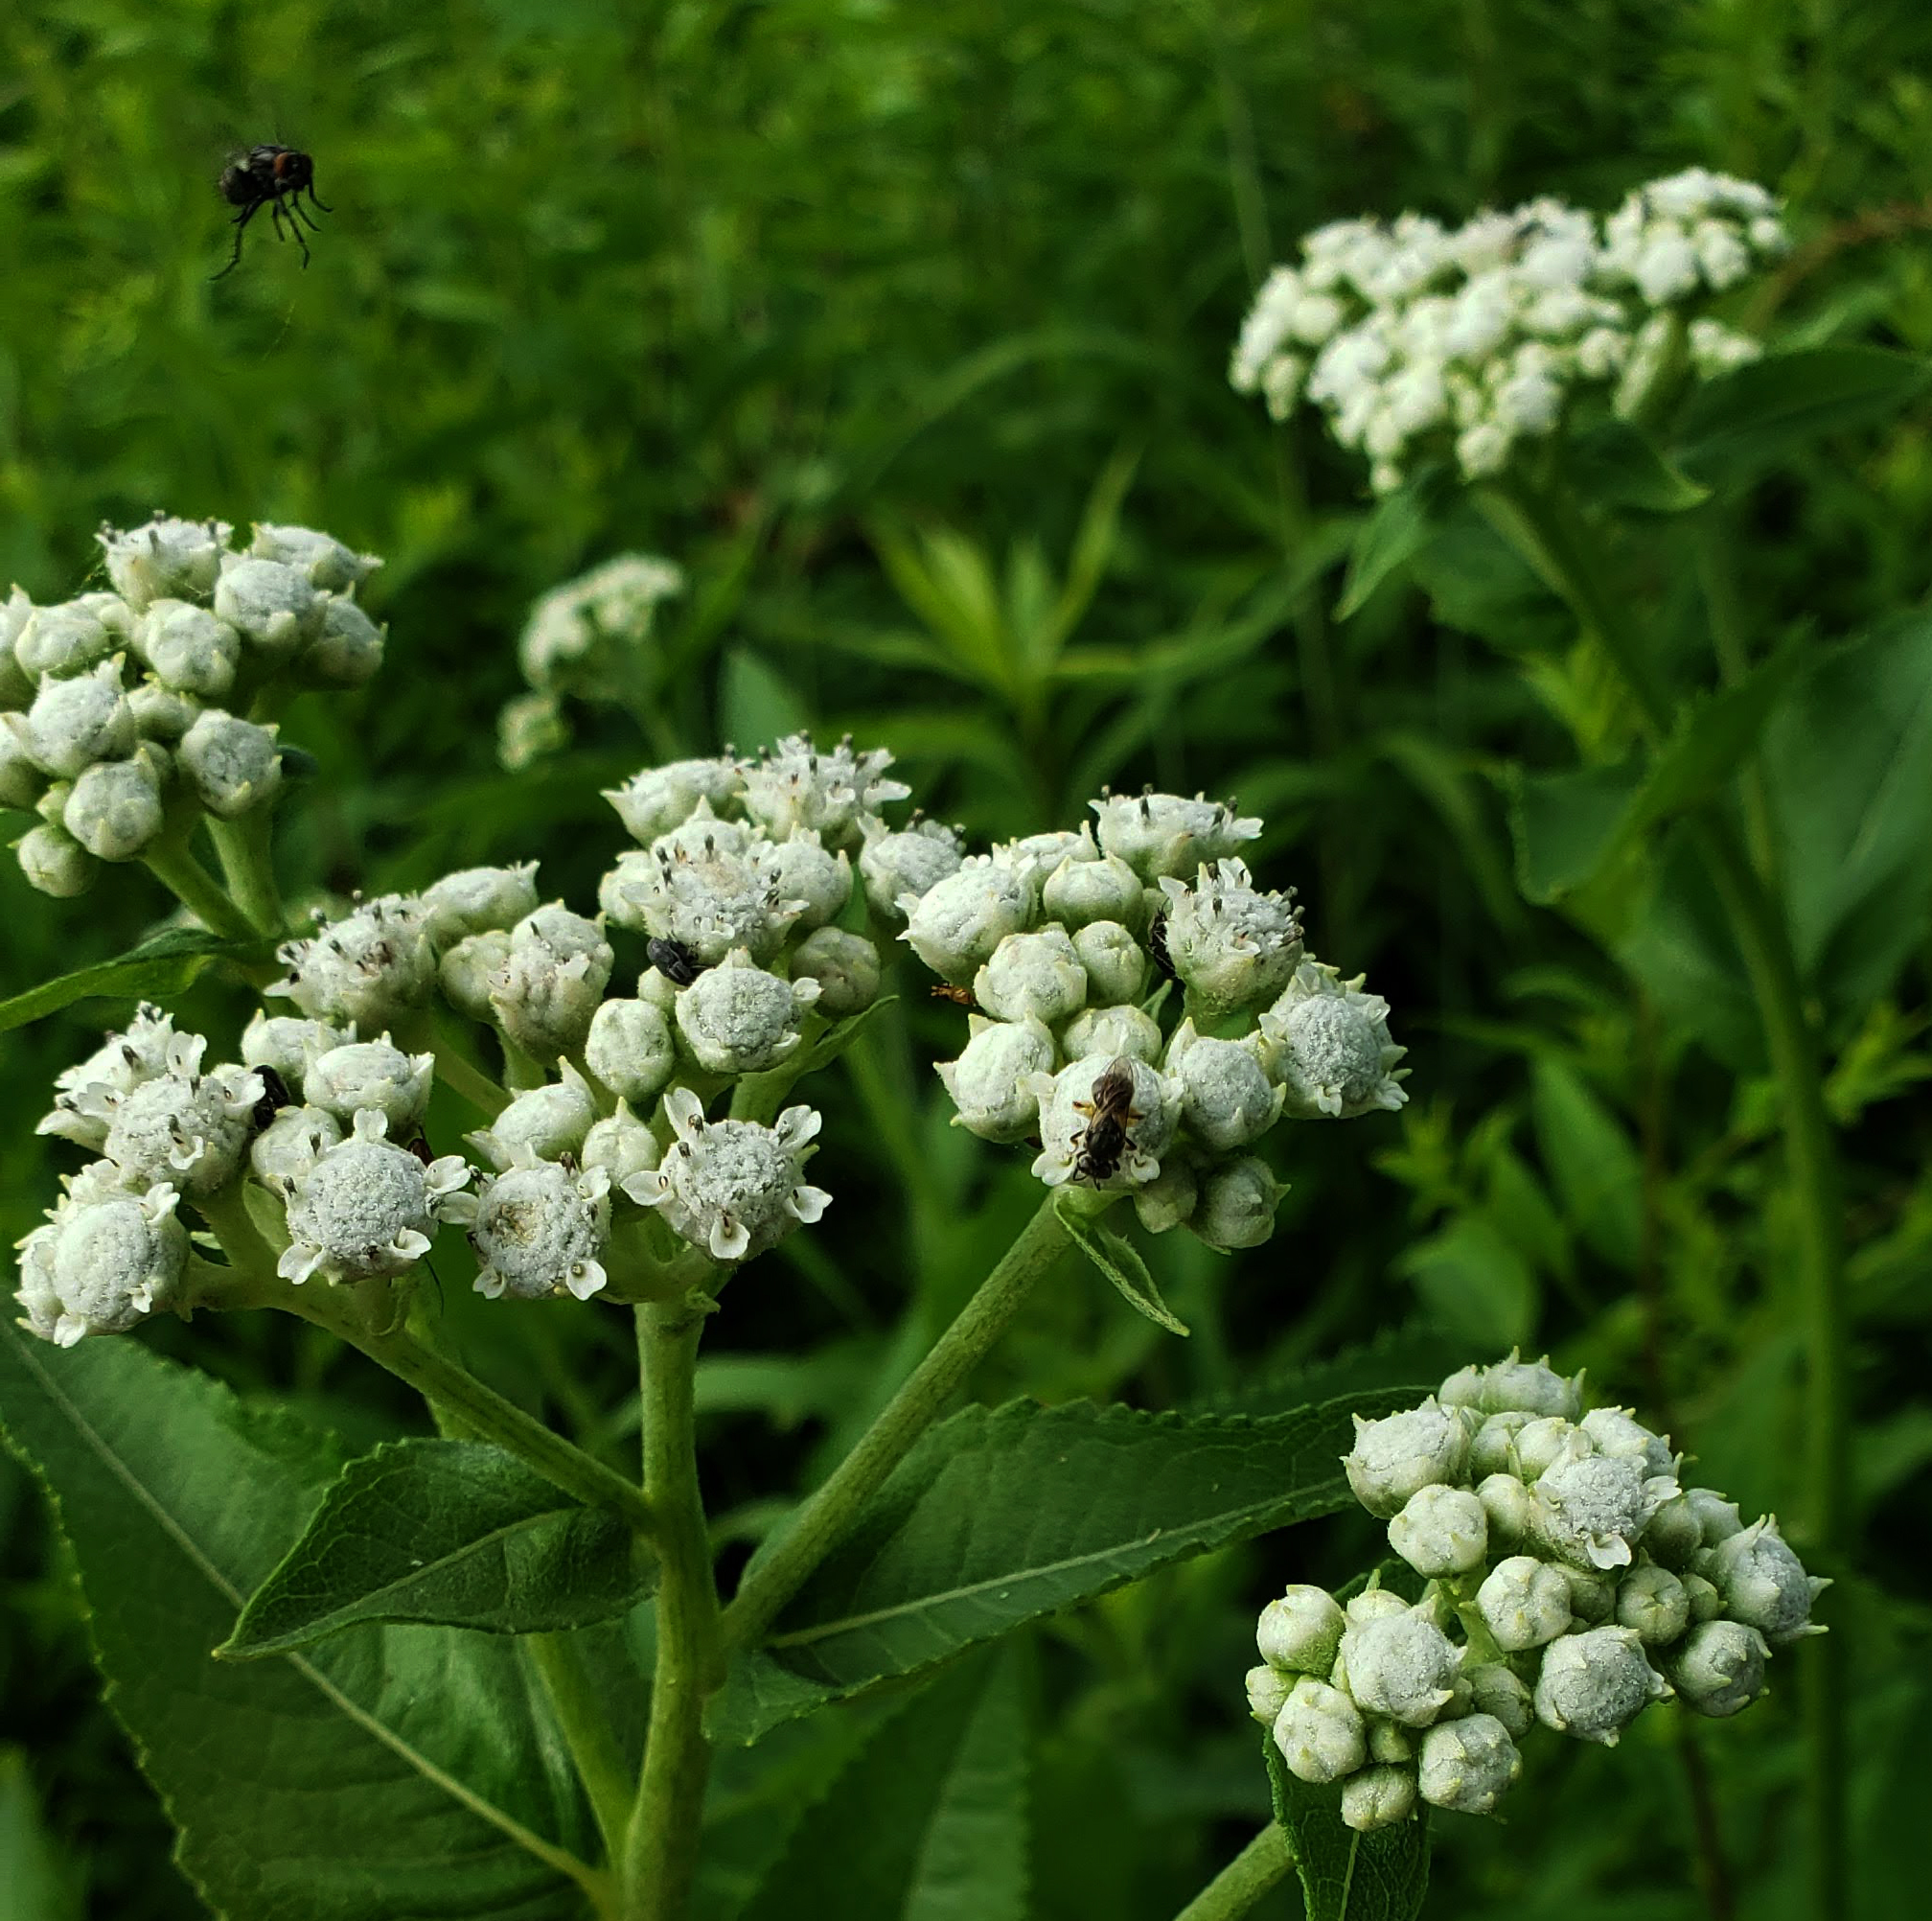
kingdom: Plantae
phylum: Tracheophyta
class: Magnoliopsida
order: Asterales
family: Asteraceae
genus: Parthenium
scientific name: Parthenium integrifolium
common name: American feverfew
